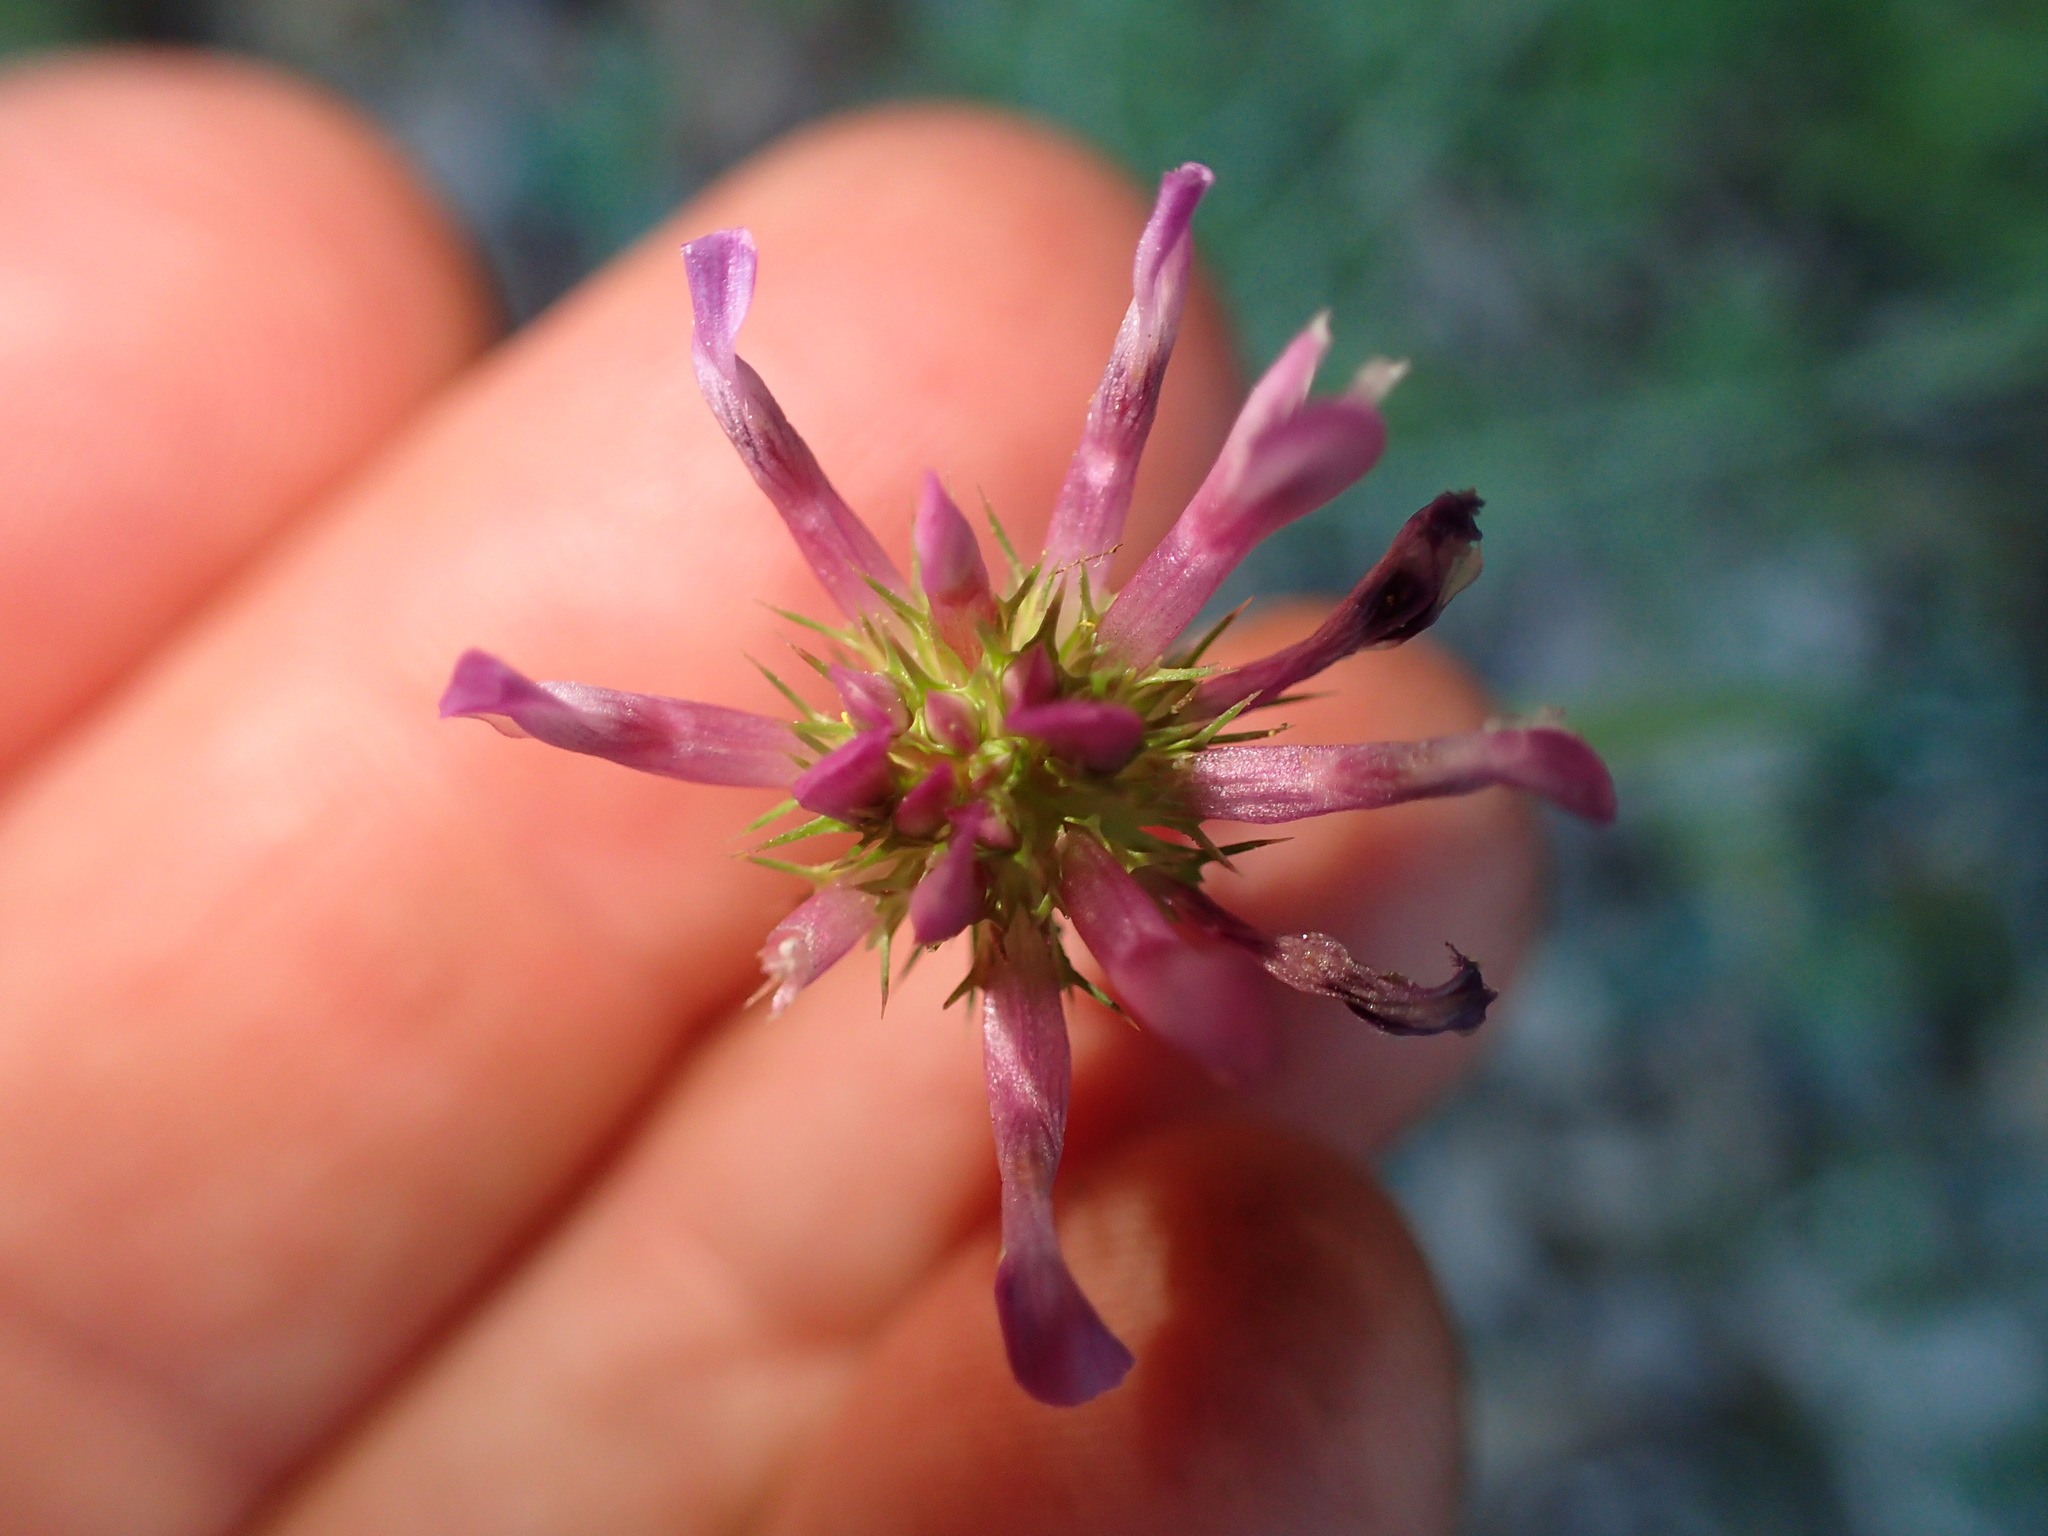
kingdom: Plantae
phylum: Tracheophyta
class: Magnoliopsida
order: Fabales
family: Fabaceae
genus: Trifolium
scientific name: Trifolium willdenovii
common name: Tomcat clover
